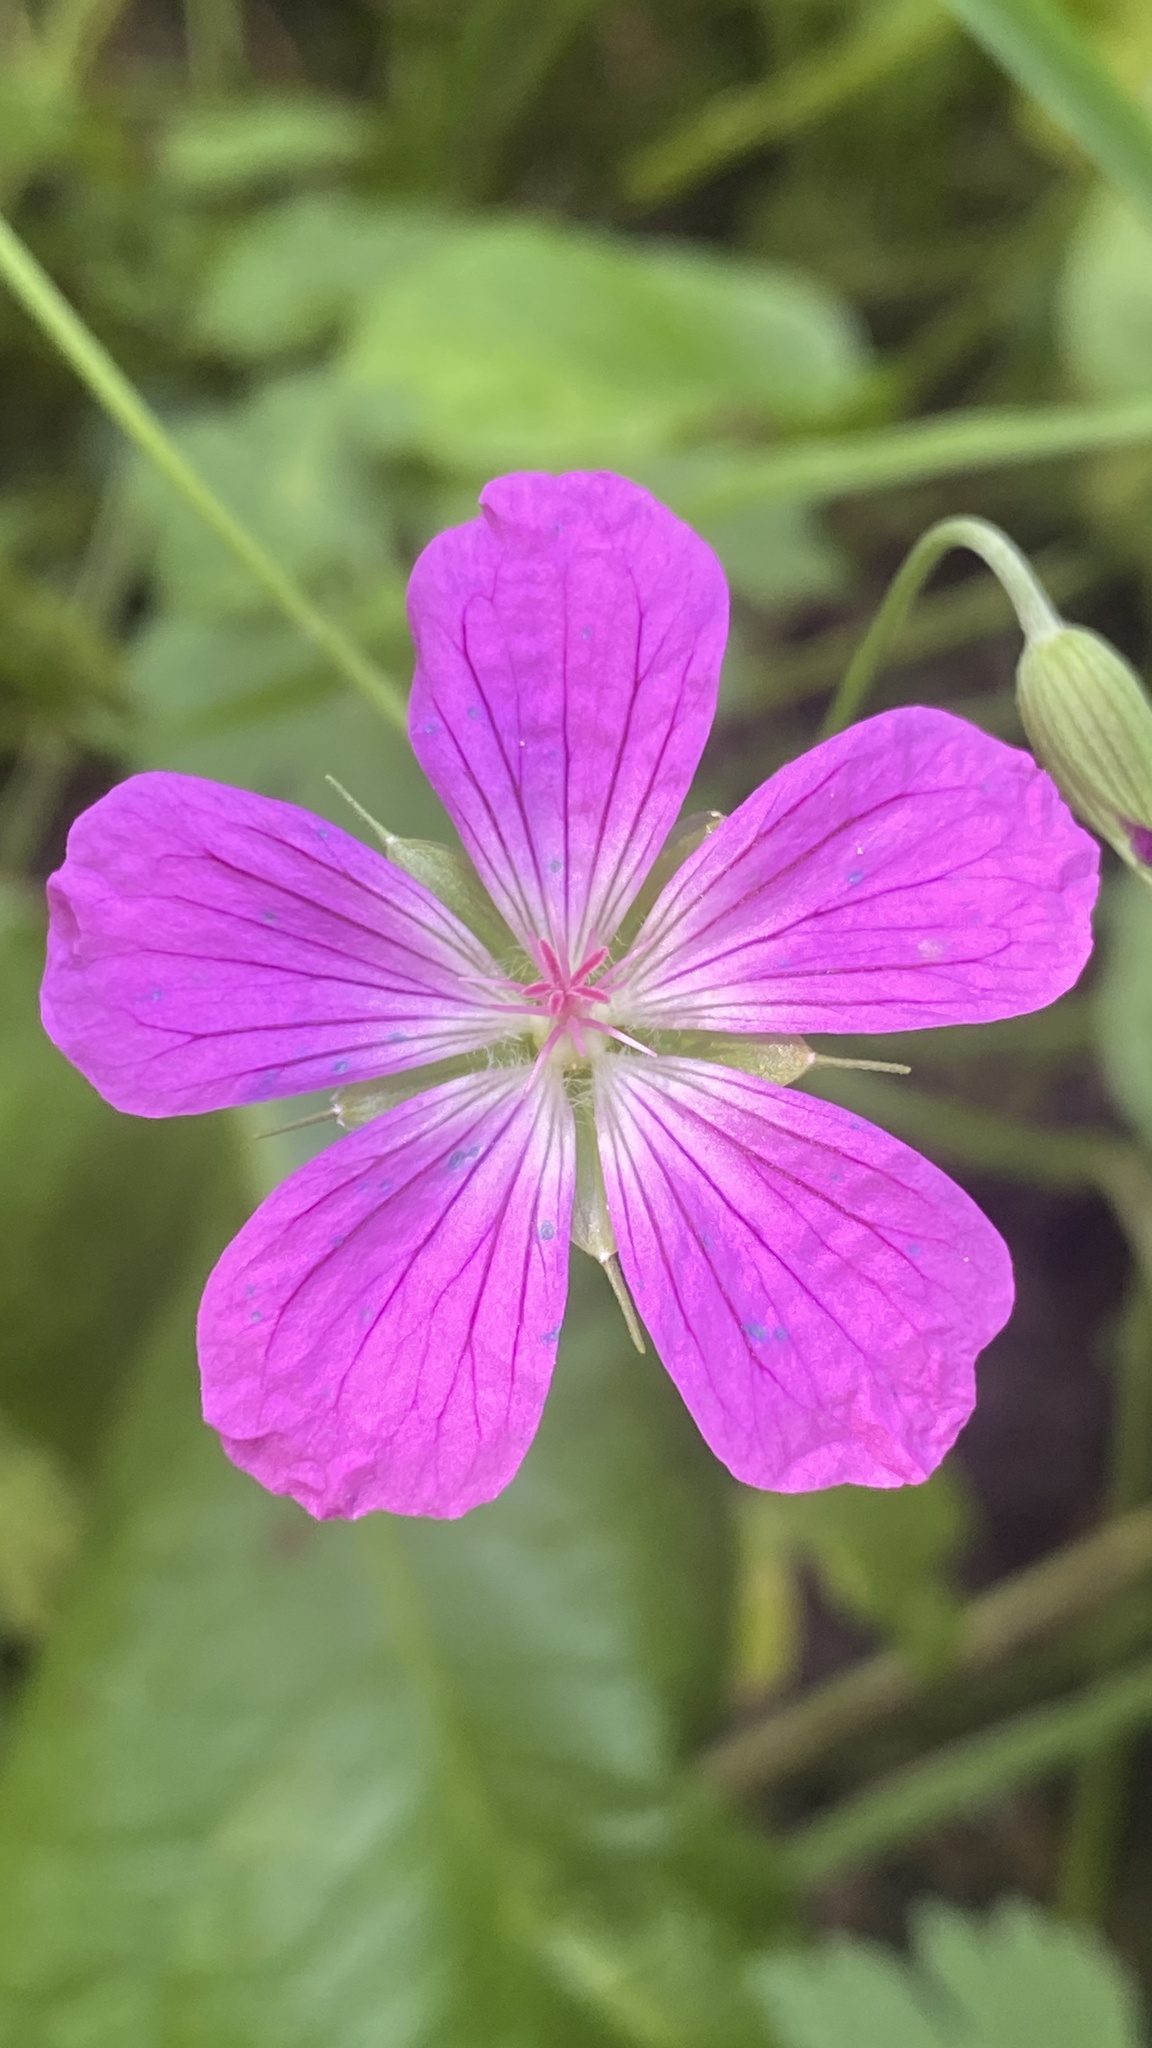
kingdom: Plantae
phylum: Tracheophyta
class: Magnoliopsida
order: Geraniales
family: Geraniaceae
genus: Geranium
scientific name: Geranium palustre
